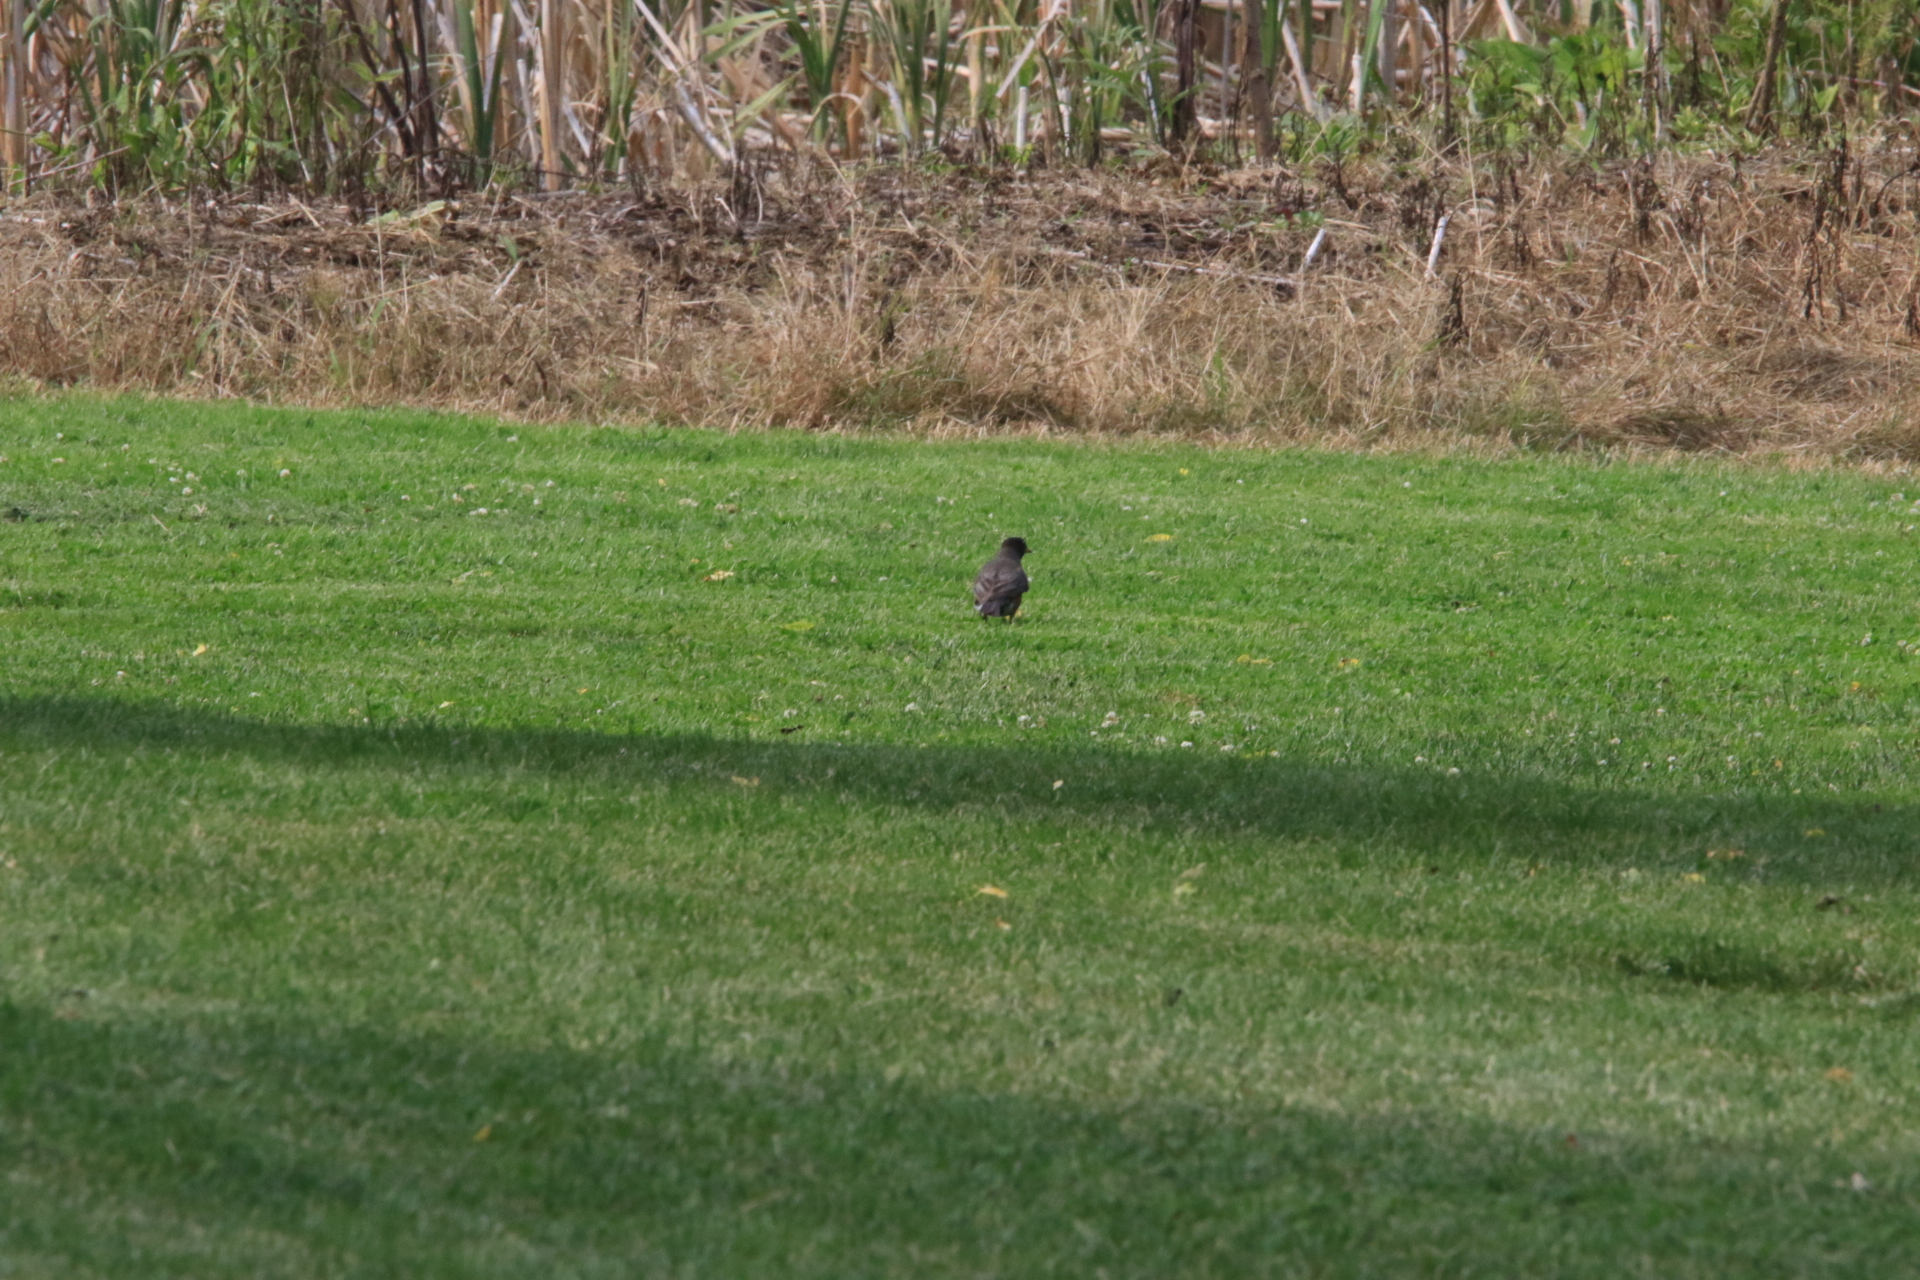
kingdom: Animalia
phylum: Chordata
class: Aves
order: Passeriformes
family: Turdidae
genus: Turdus
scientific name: Turdus migratorius
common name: American robin
